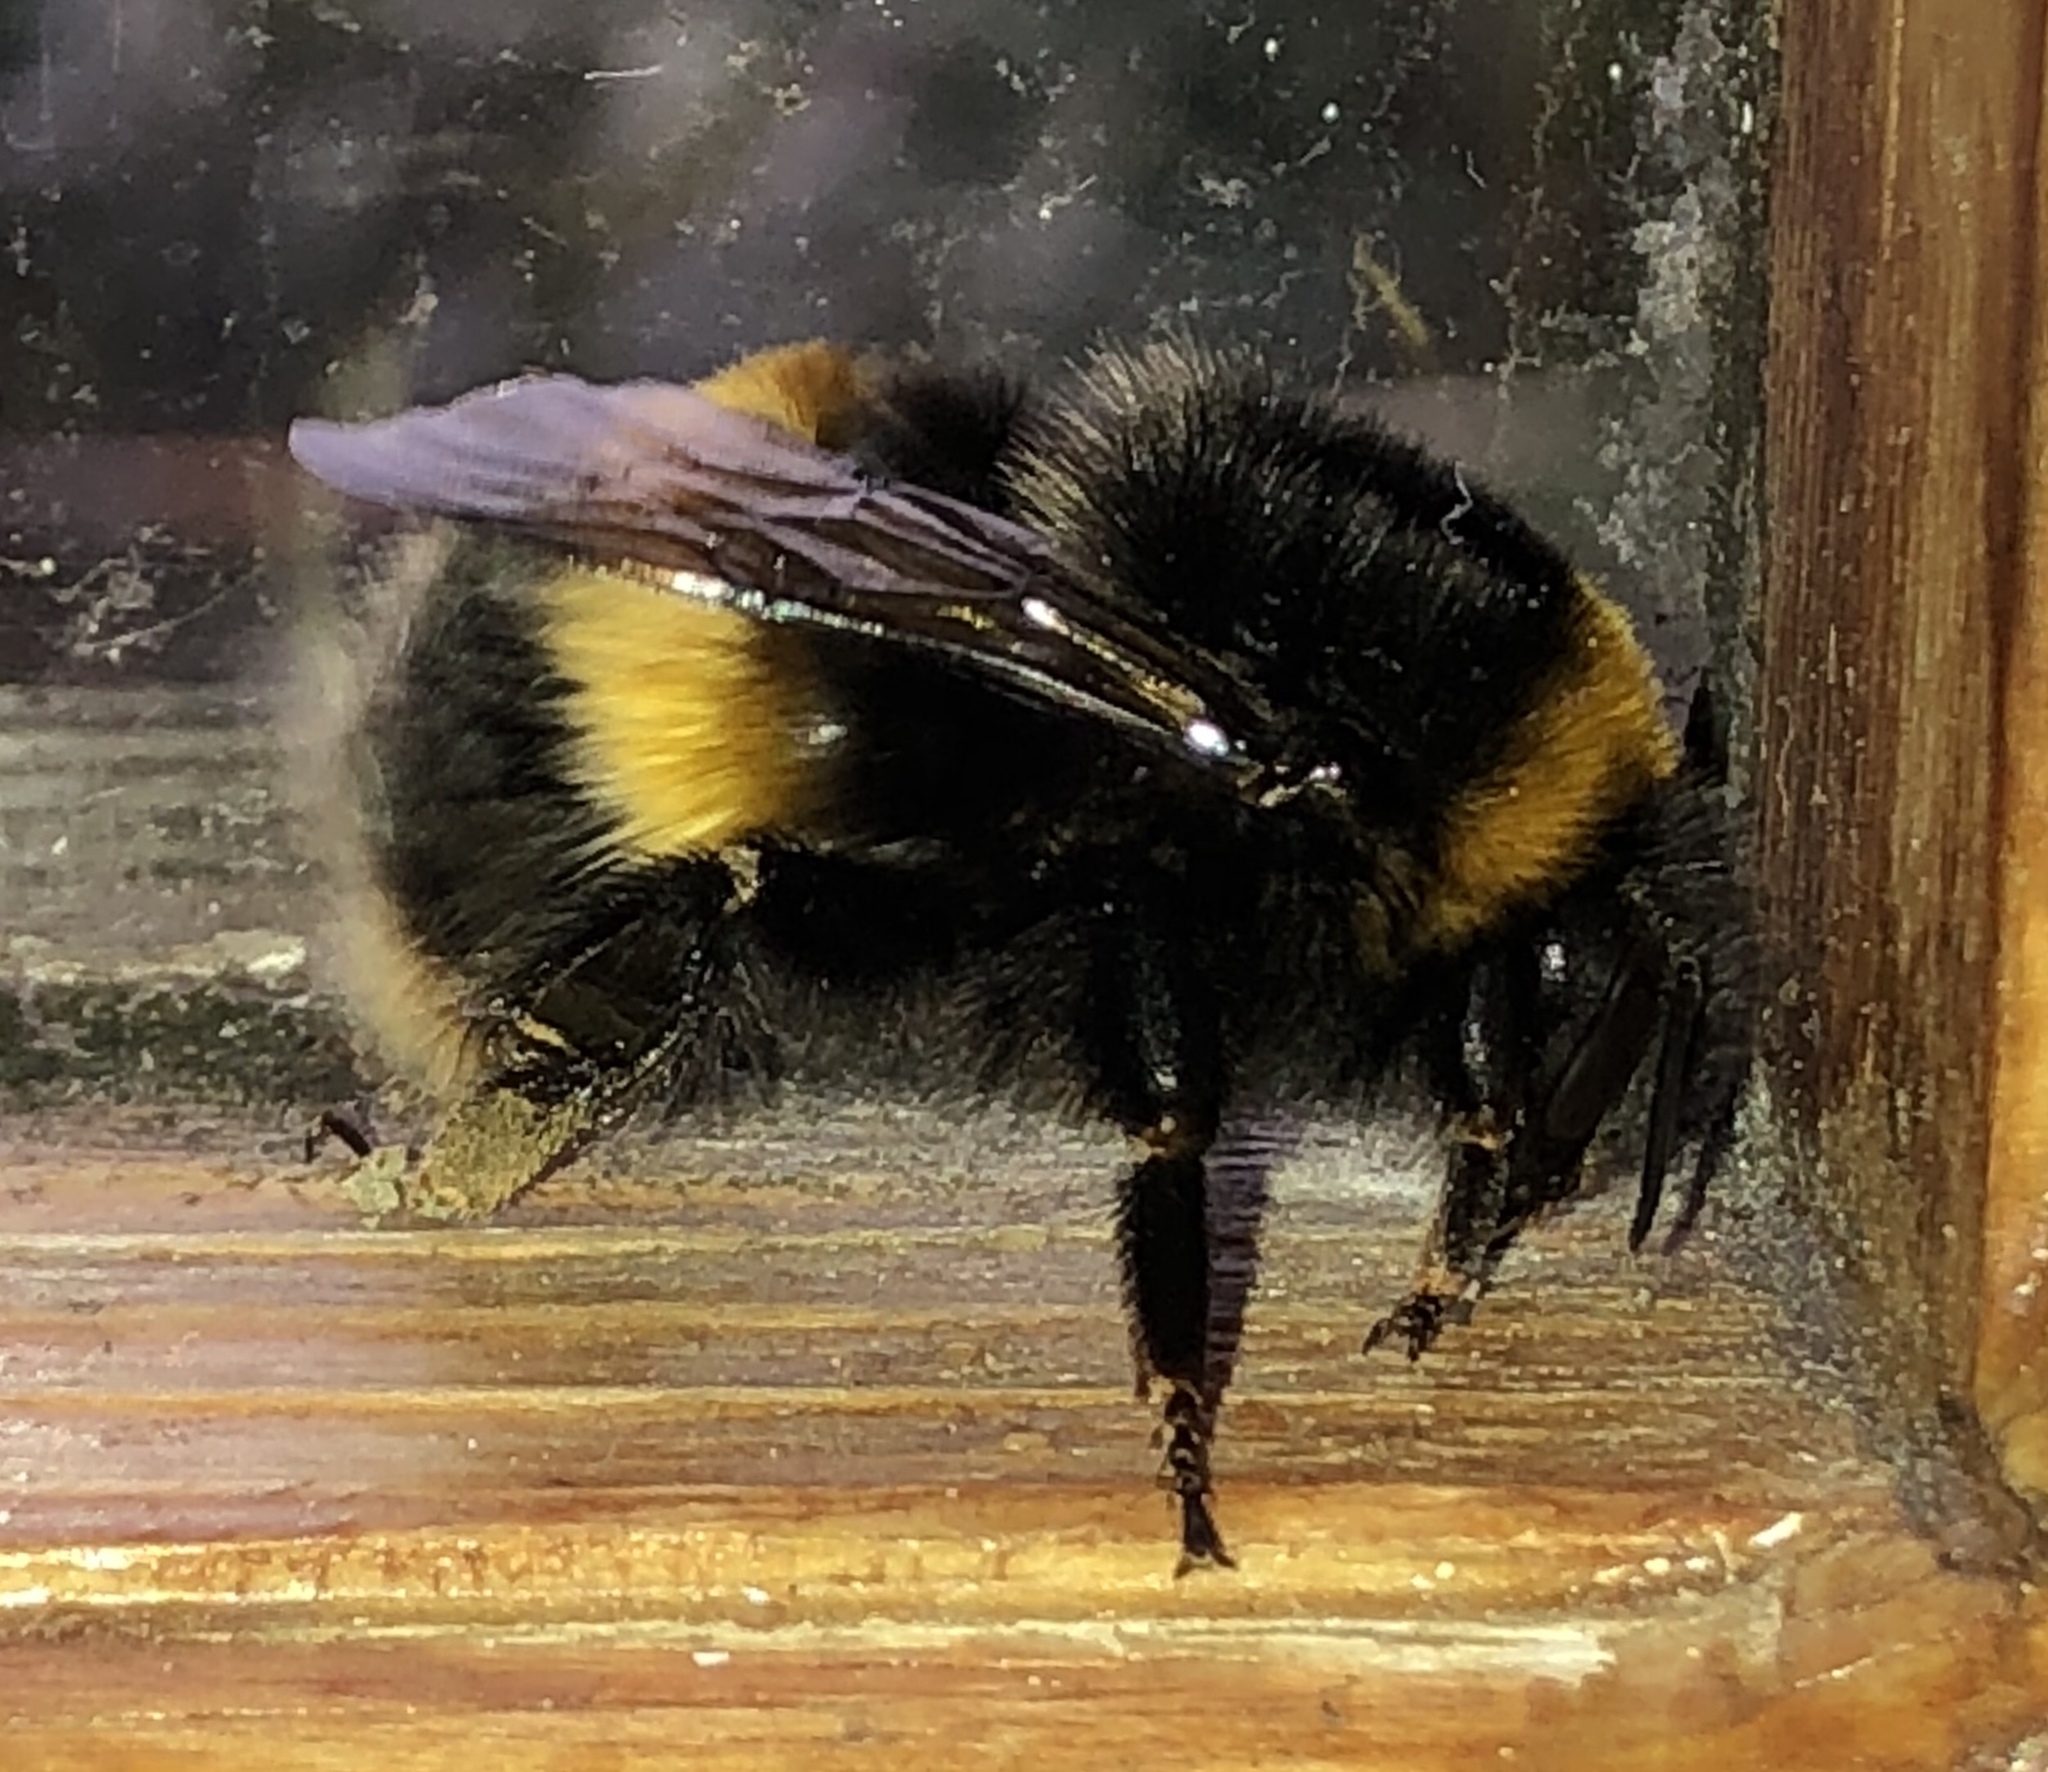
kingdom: Animalia
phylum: Arthropoda
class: Insecta
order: Hymenoptera
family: Apidae
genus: Bombus
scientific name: Bombus terrestris
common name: Buff-tailed bumblebee
